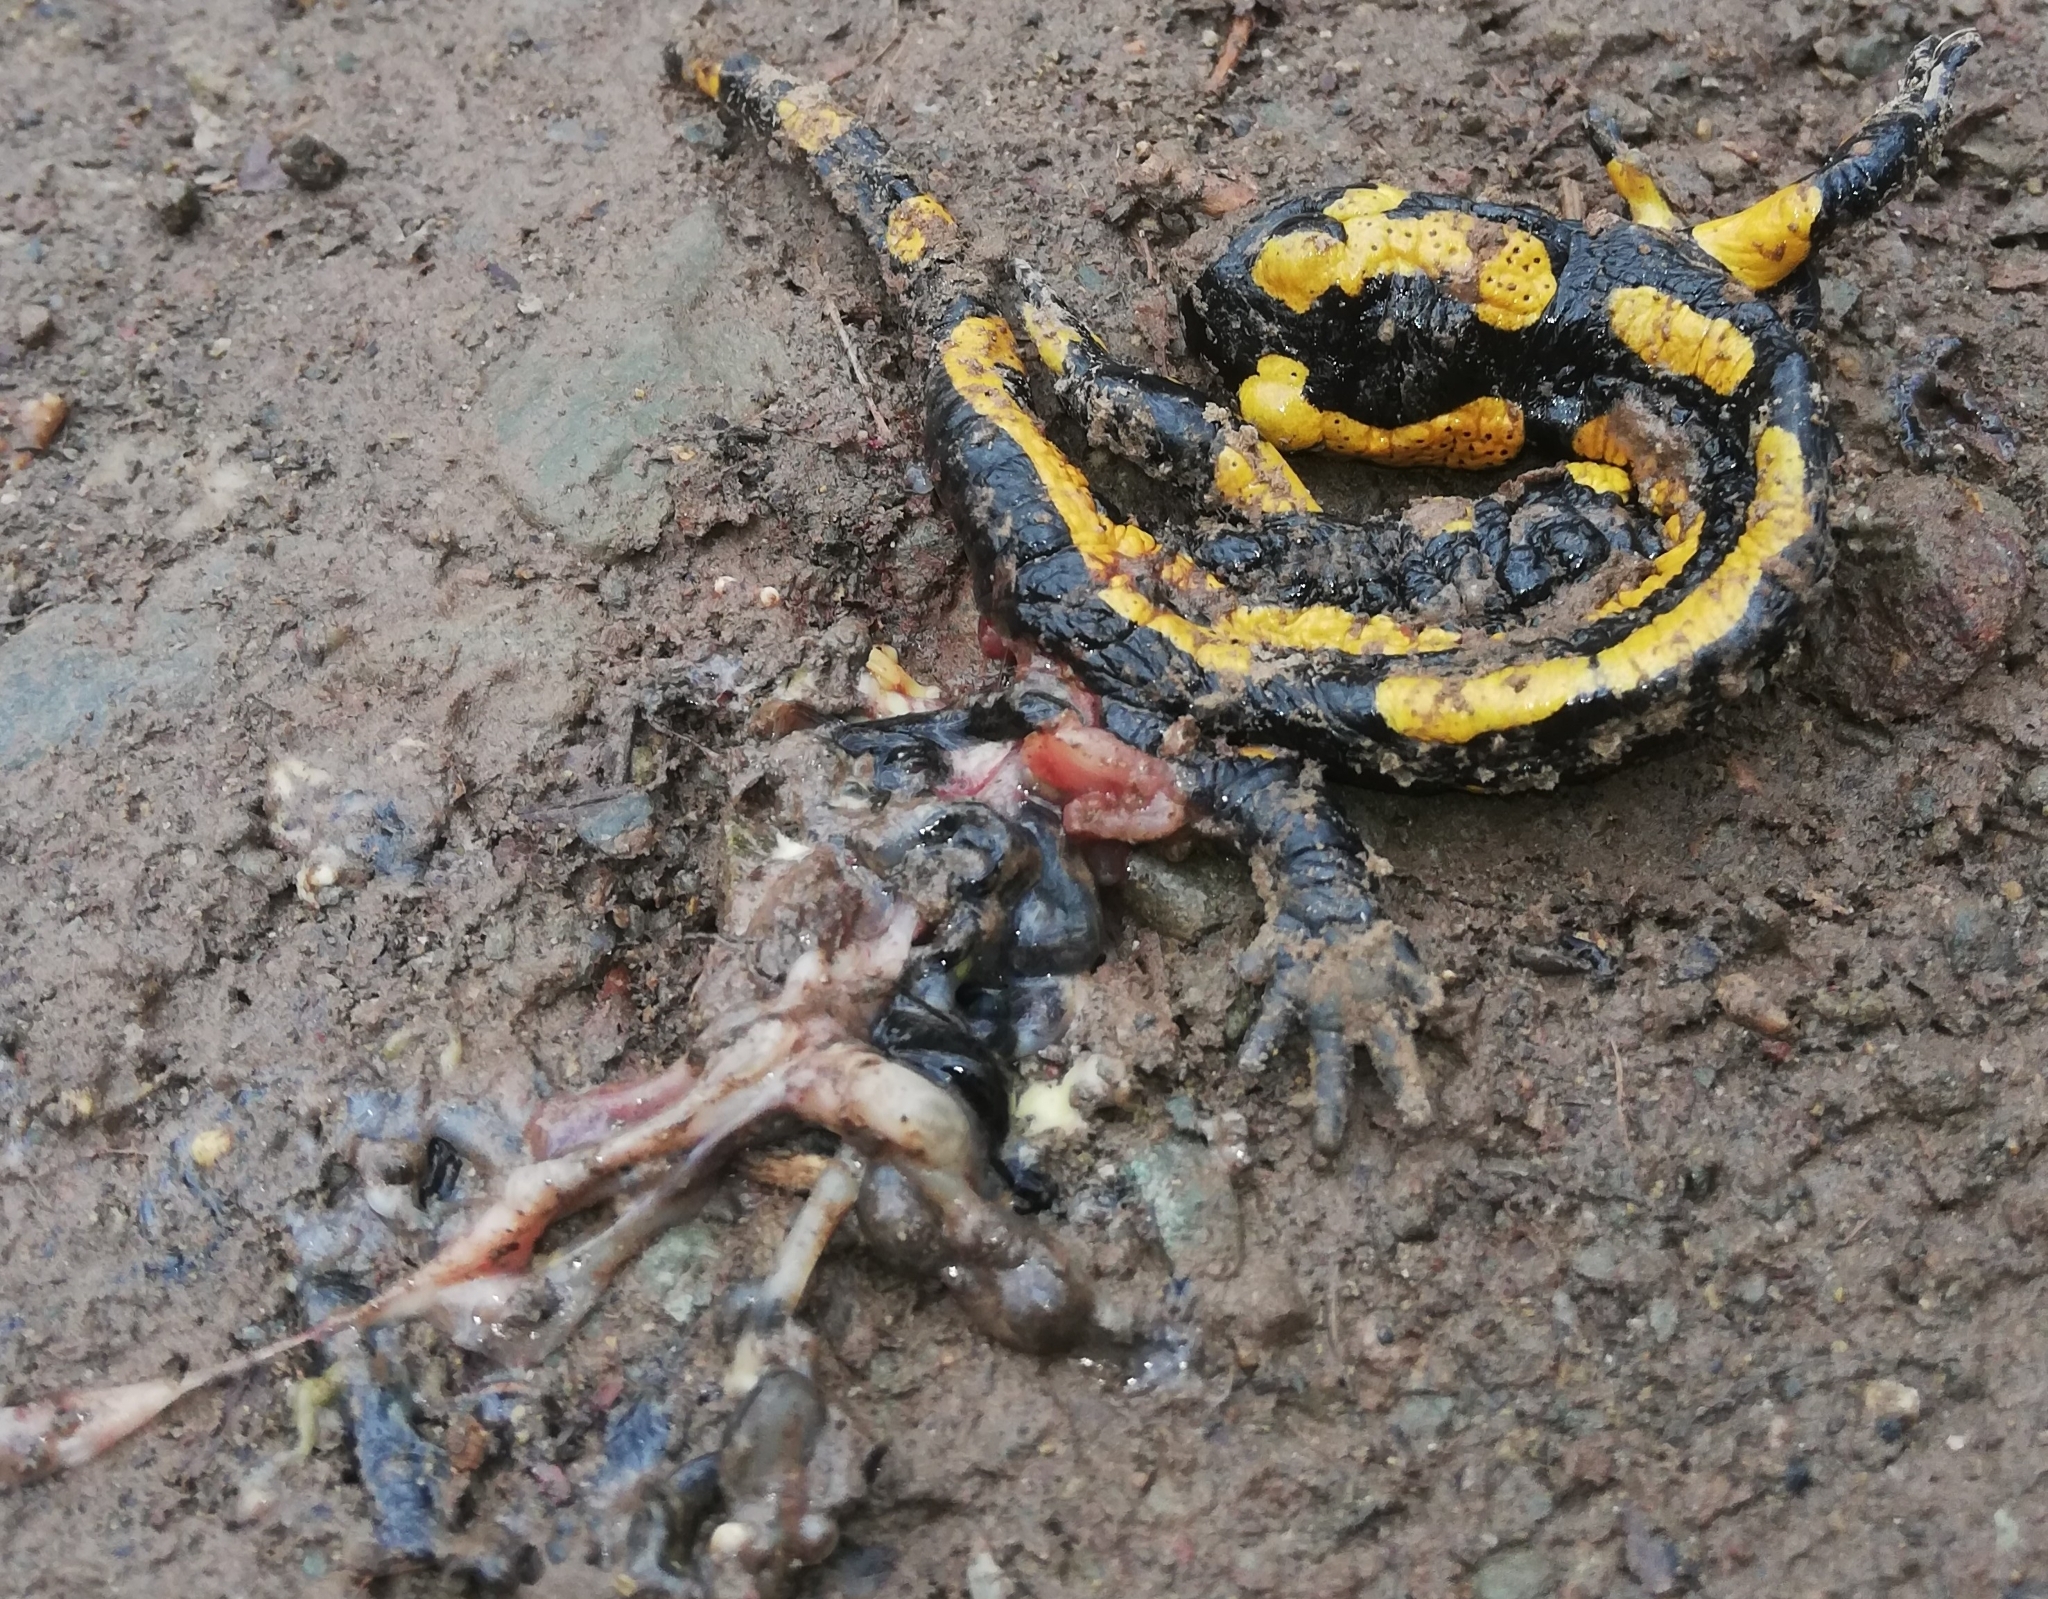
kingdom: Animalia
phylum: Chordata
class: Amphibia
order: Caudata
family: Salamandridae
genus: Salamandra
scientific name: Salamandra salamandra
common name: Fire salamander
